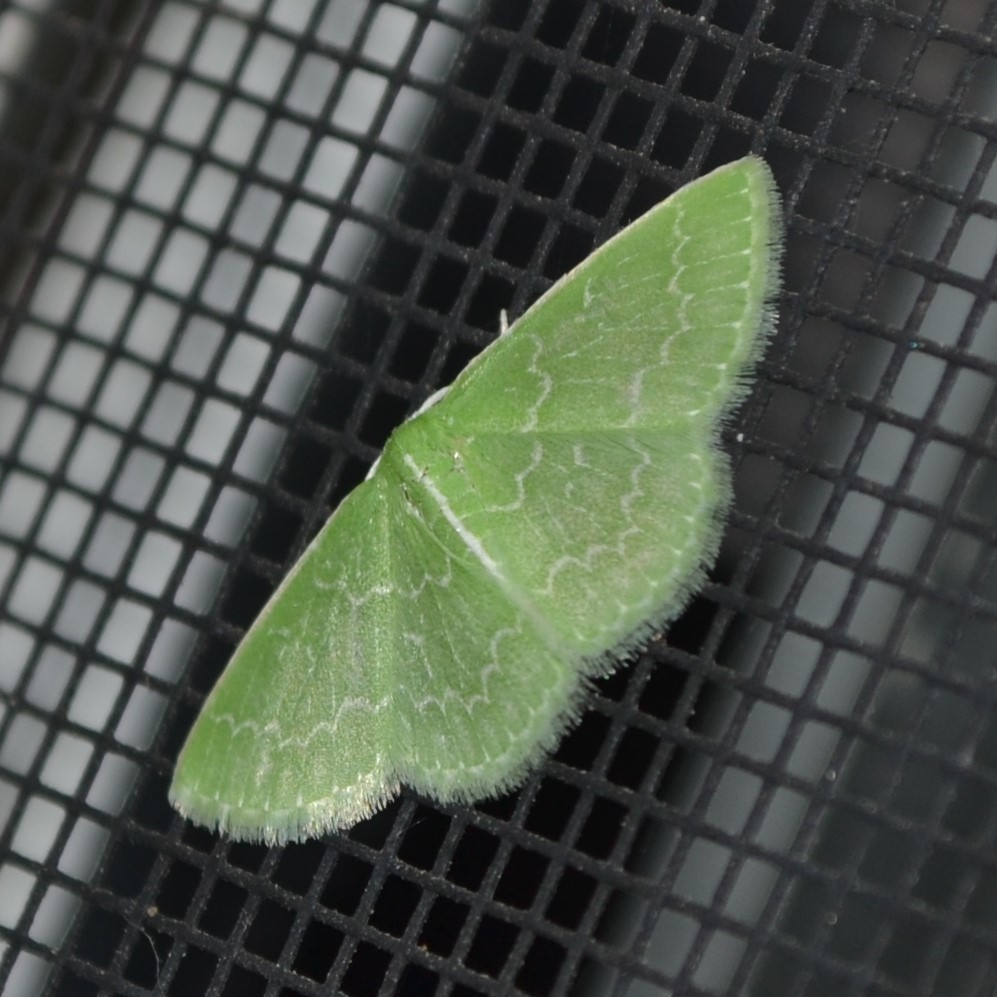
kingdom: Animalia
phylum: Arthropoda
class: Insecta
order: Lepidoptera
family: Geometridae
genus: Synchlora
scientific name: Synchlora frondaria
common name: Southern emerald
